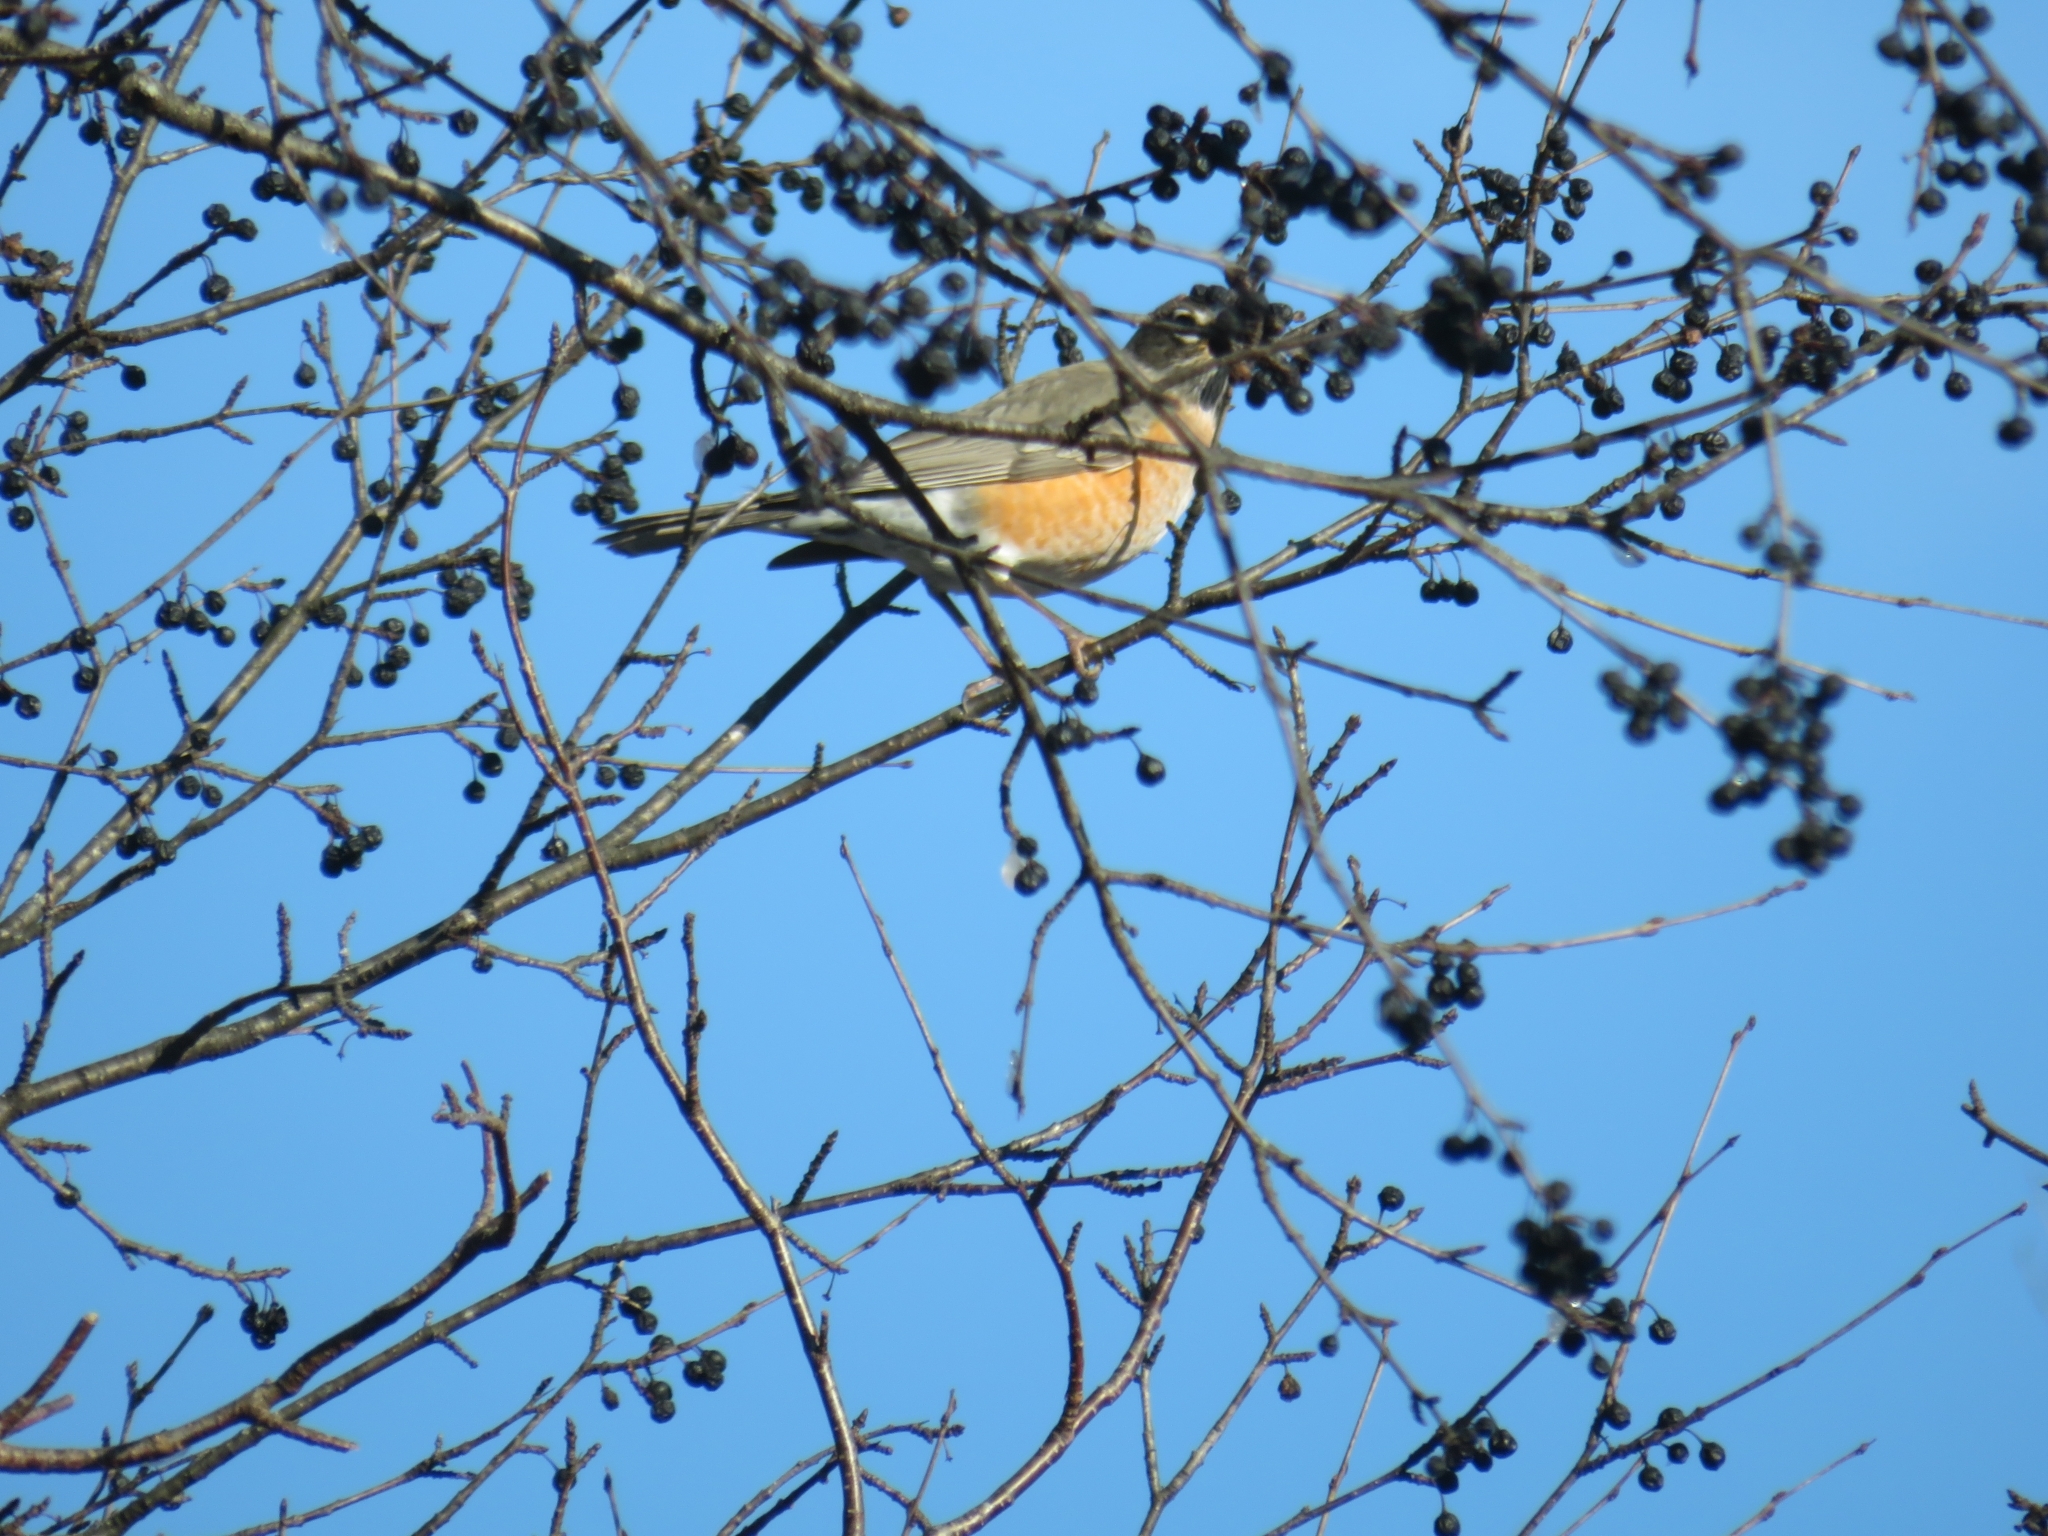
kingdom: Animalia
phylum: Chordata
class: Aves
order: Passeriformes
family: Turdidae
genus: Turdus
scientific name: Turdus migratorius
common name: American robin
